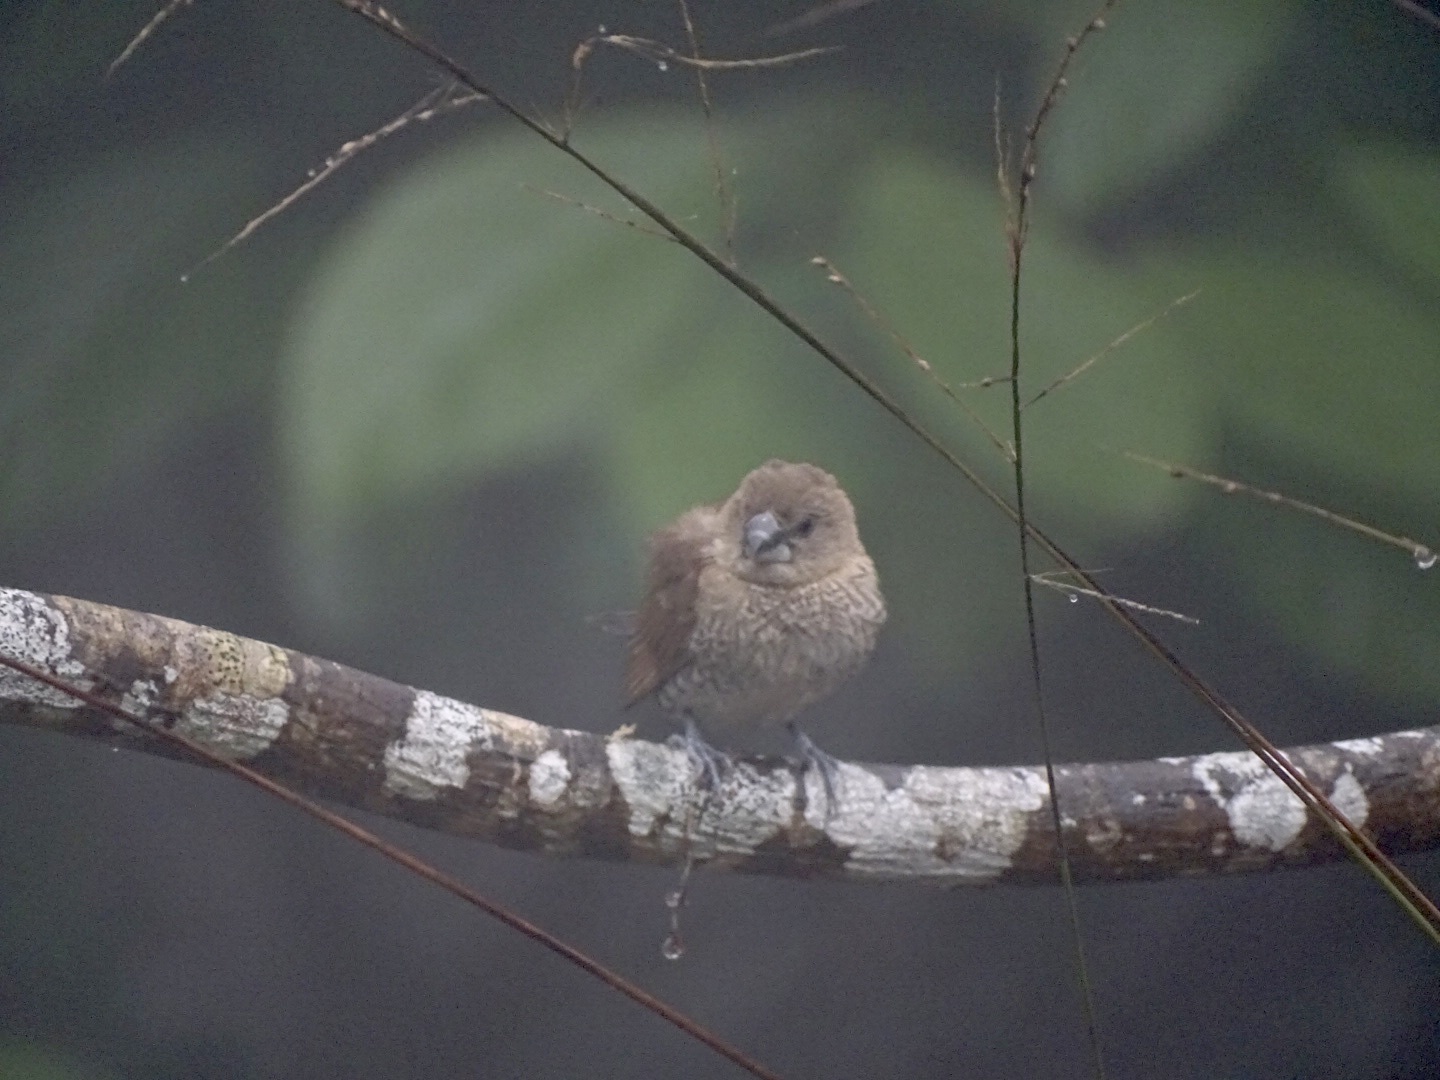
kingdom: Animalia
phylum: Chordata
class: Aves
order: Passeriformes
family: Estrildidae
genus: Lonchura
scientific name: Lonchura punctulata
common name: Scaly-breasted munia
